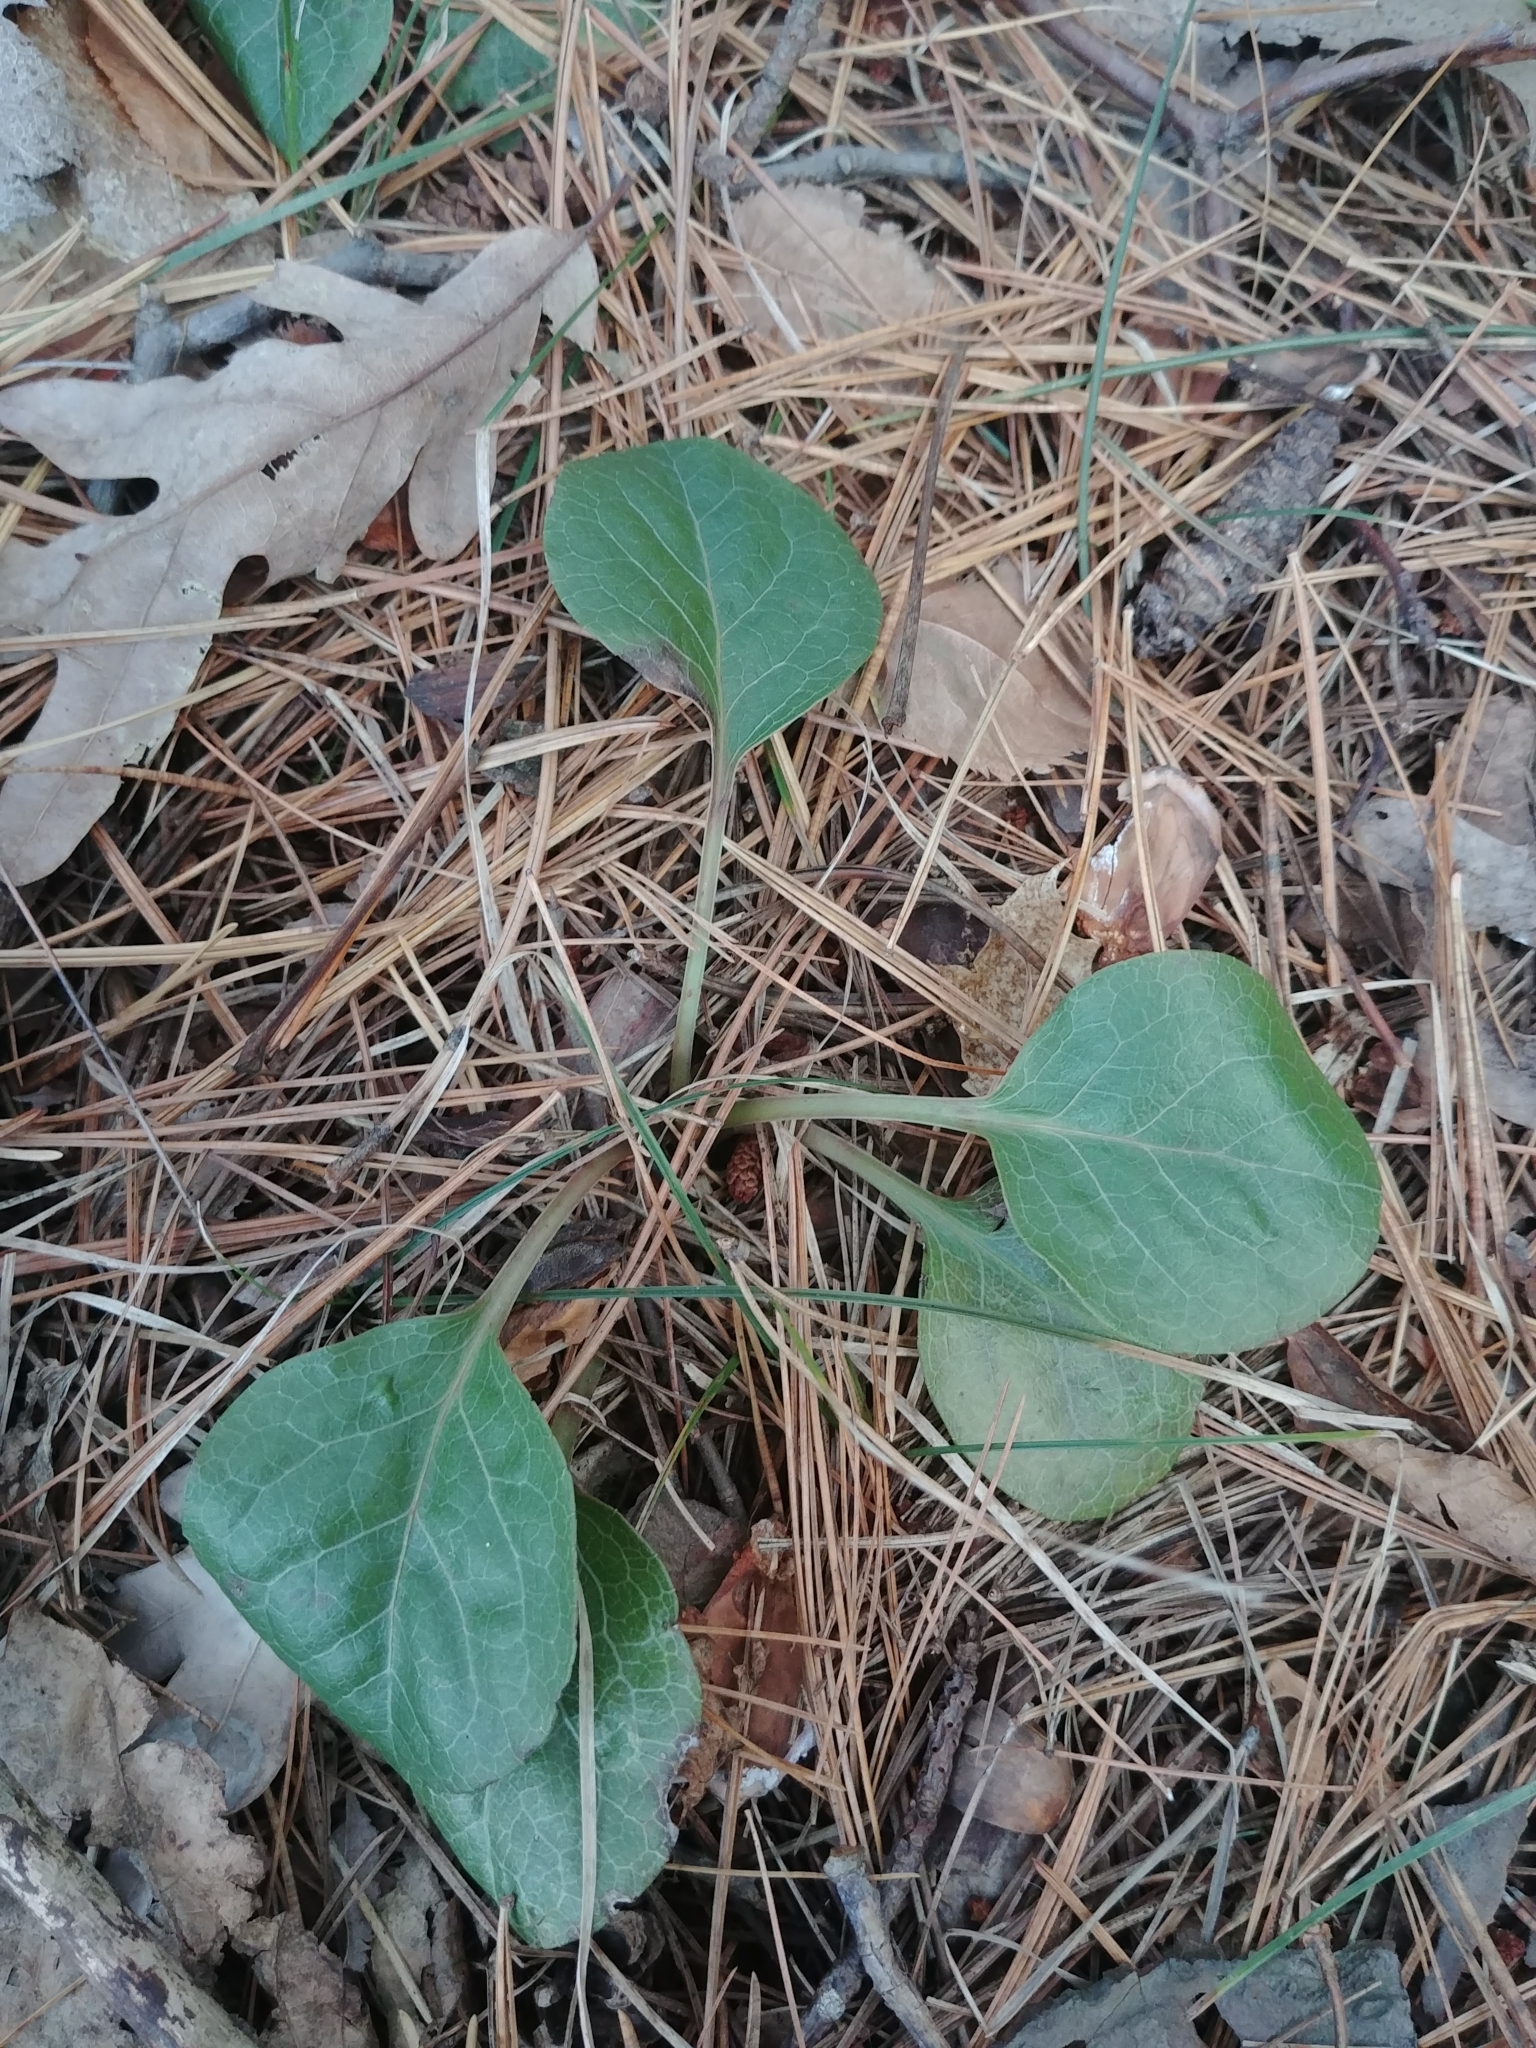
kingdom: Plantae
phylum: Tracheophyta
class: Magnoliopsida
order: Ericales
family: Ericaceae
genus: Pyrola
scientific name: Pyrola americana
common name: American wintergreen
